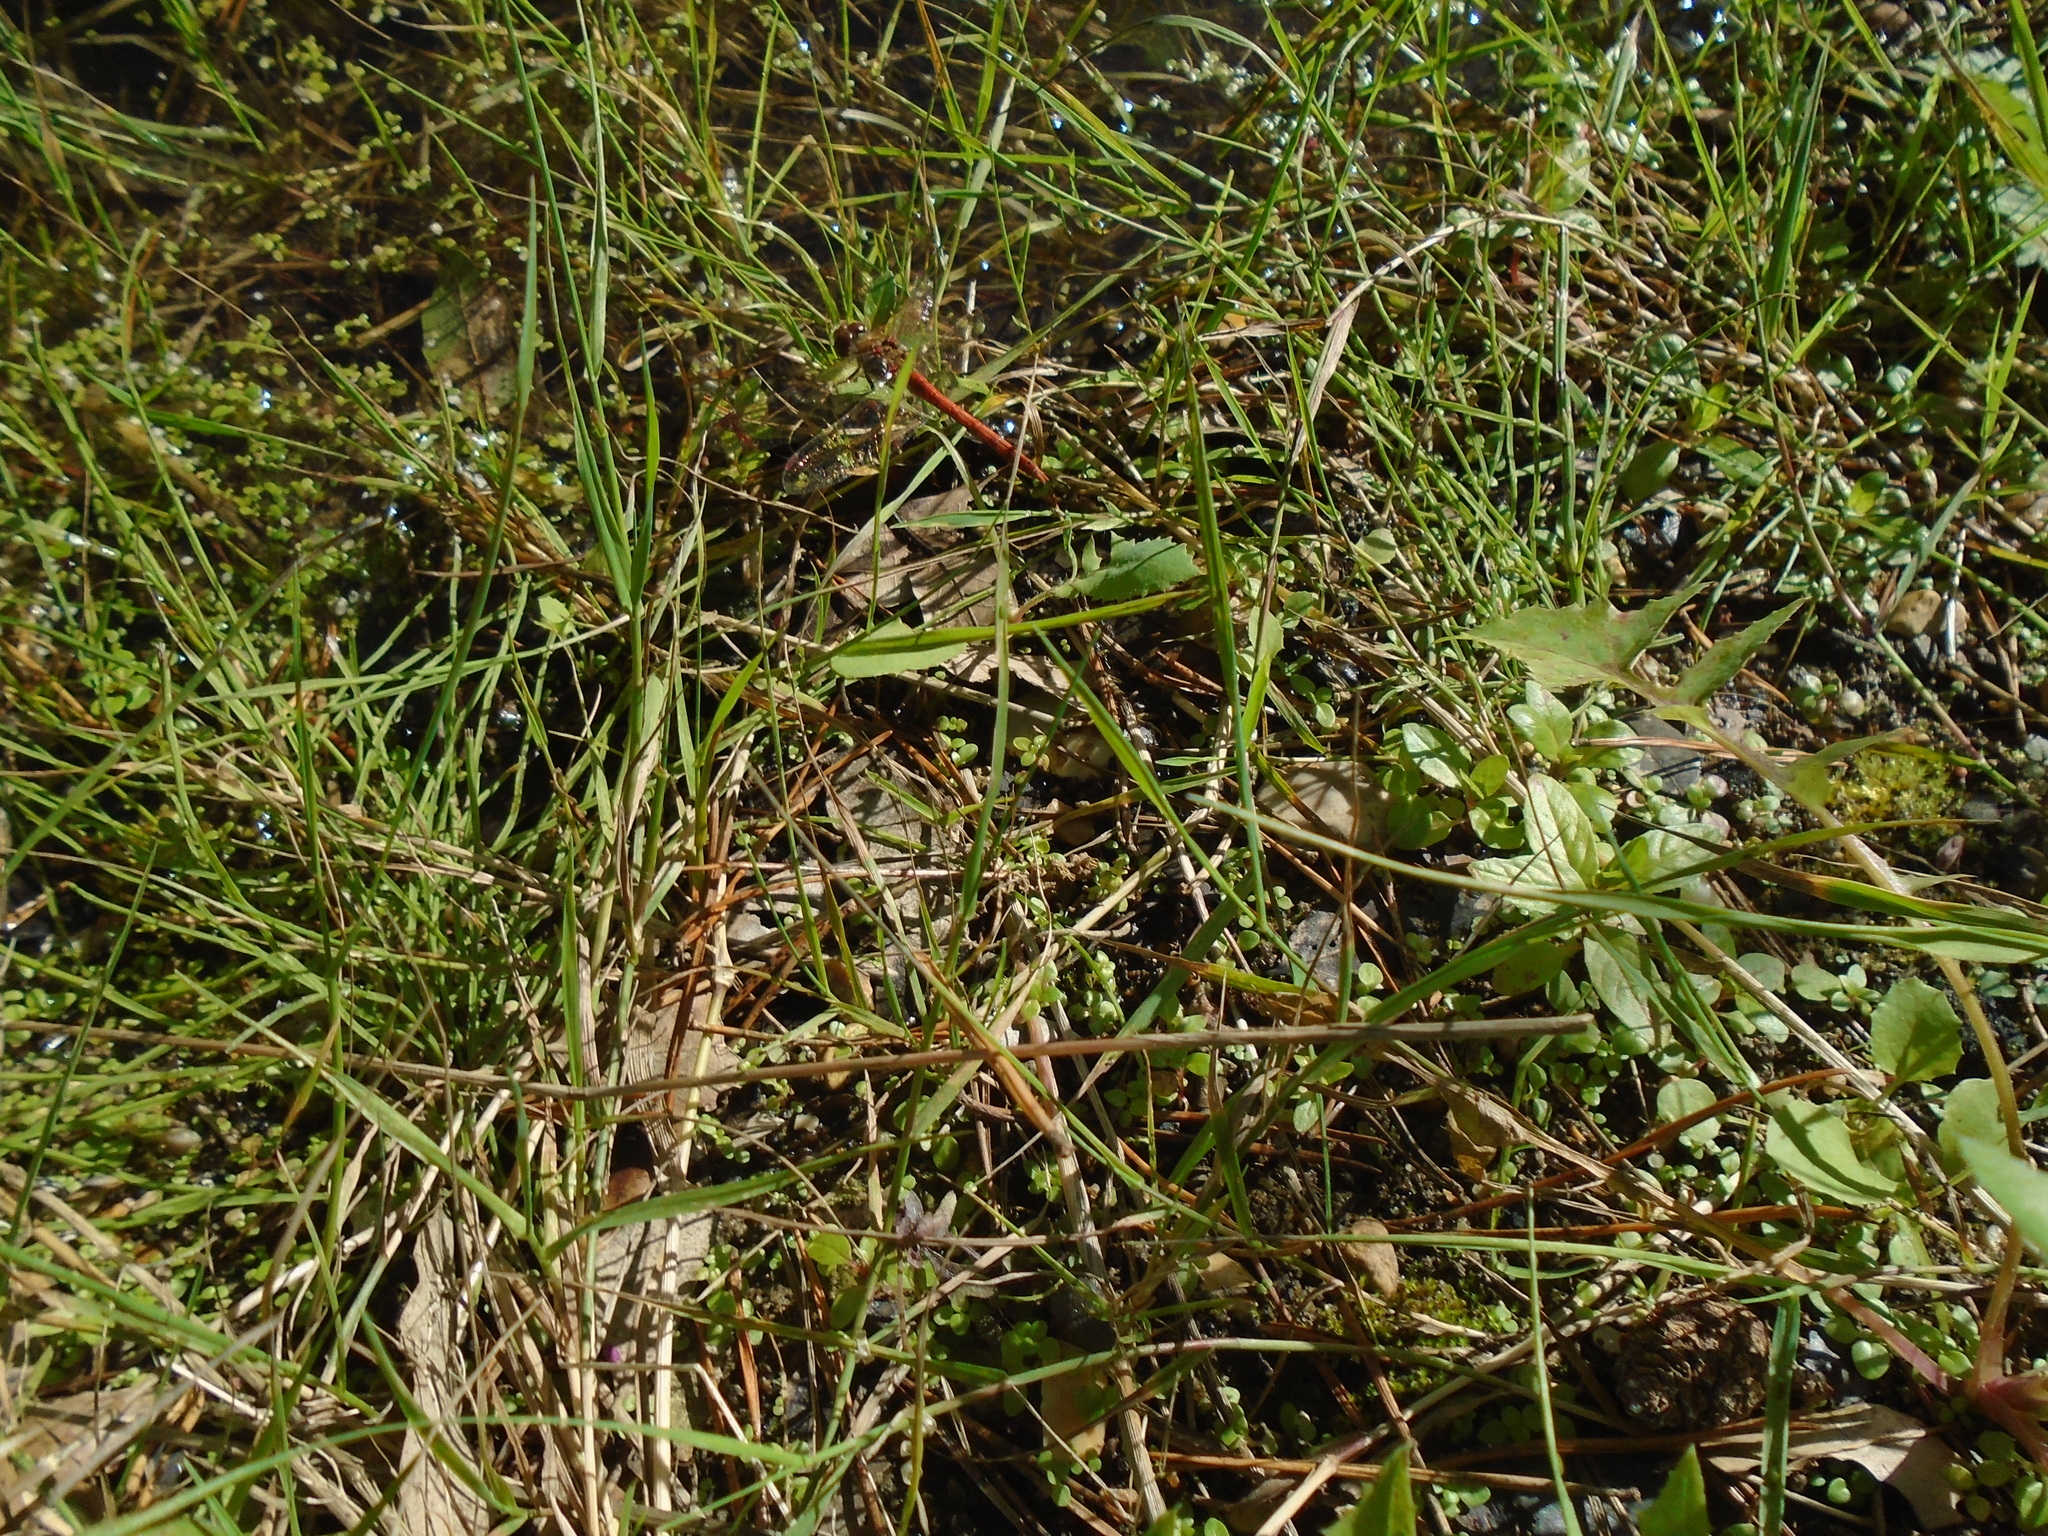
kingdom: Animalia
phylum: Arthropoda
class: Insecta
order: Odonata
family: Libellulidae
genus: Sympetrum
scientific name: Sympetrum striolatum
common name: Common darter
